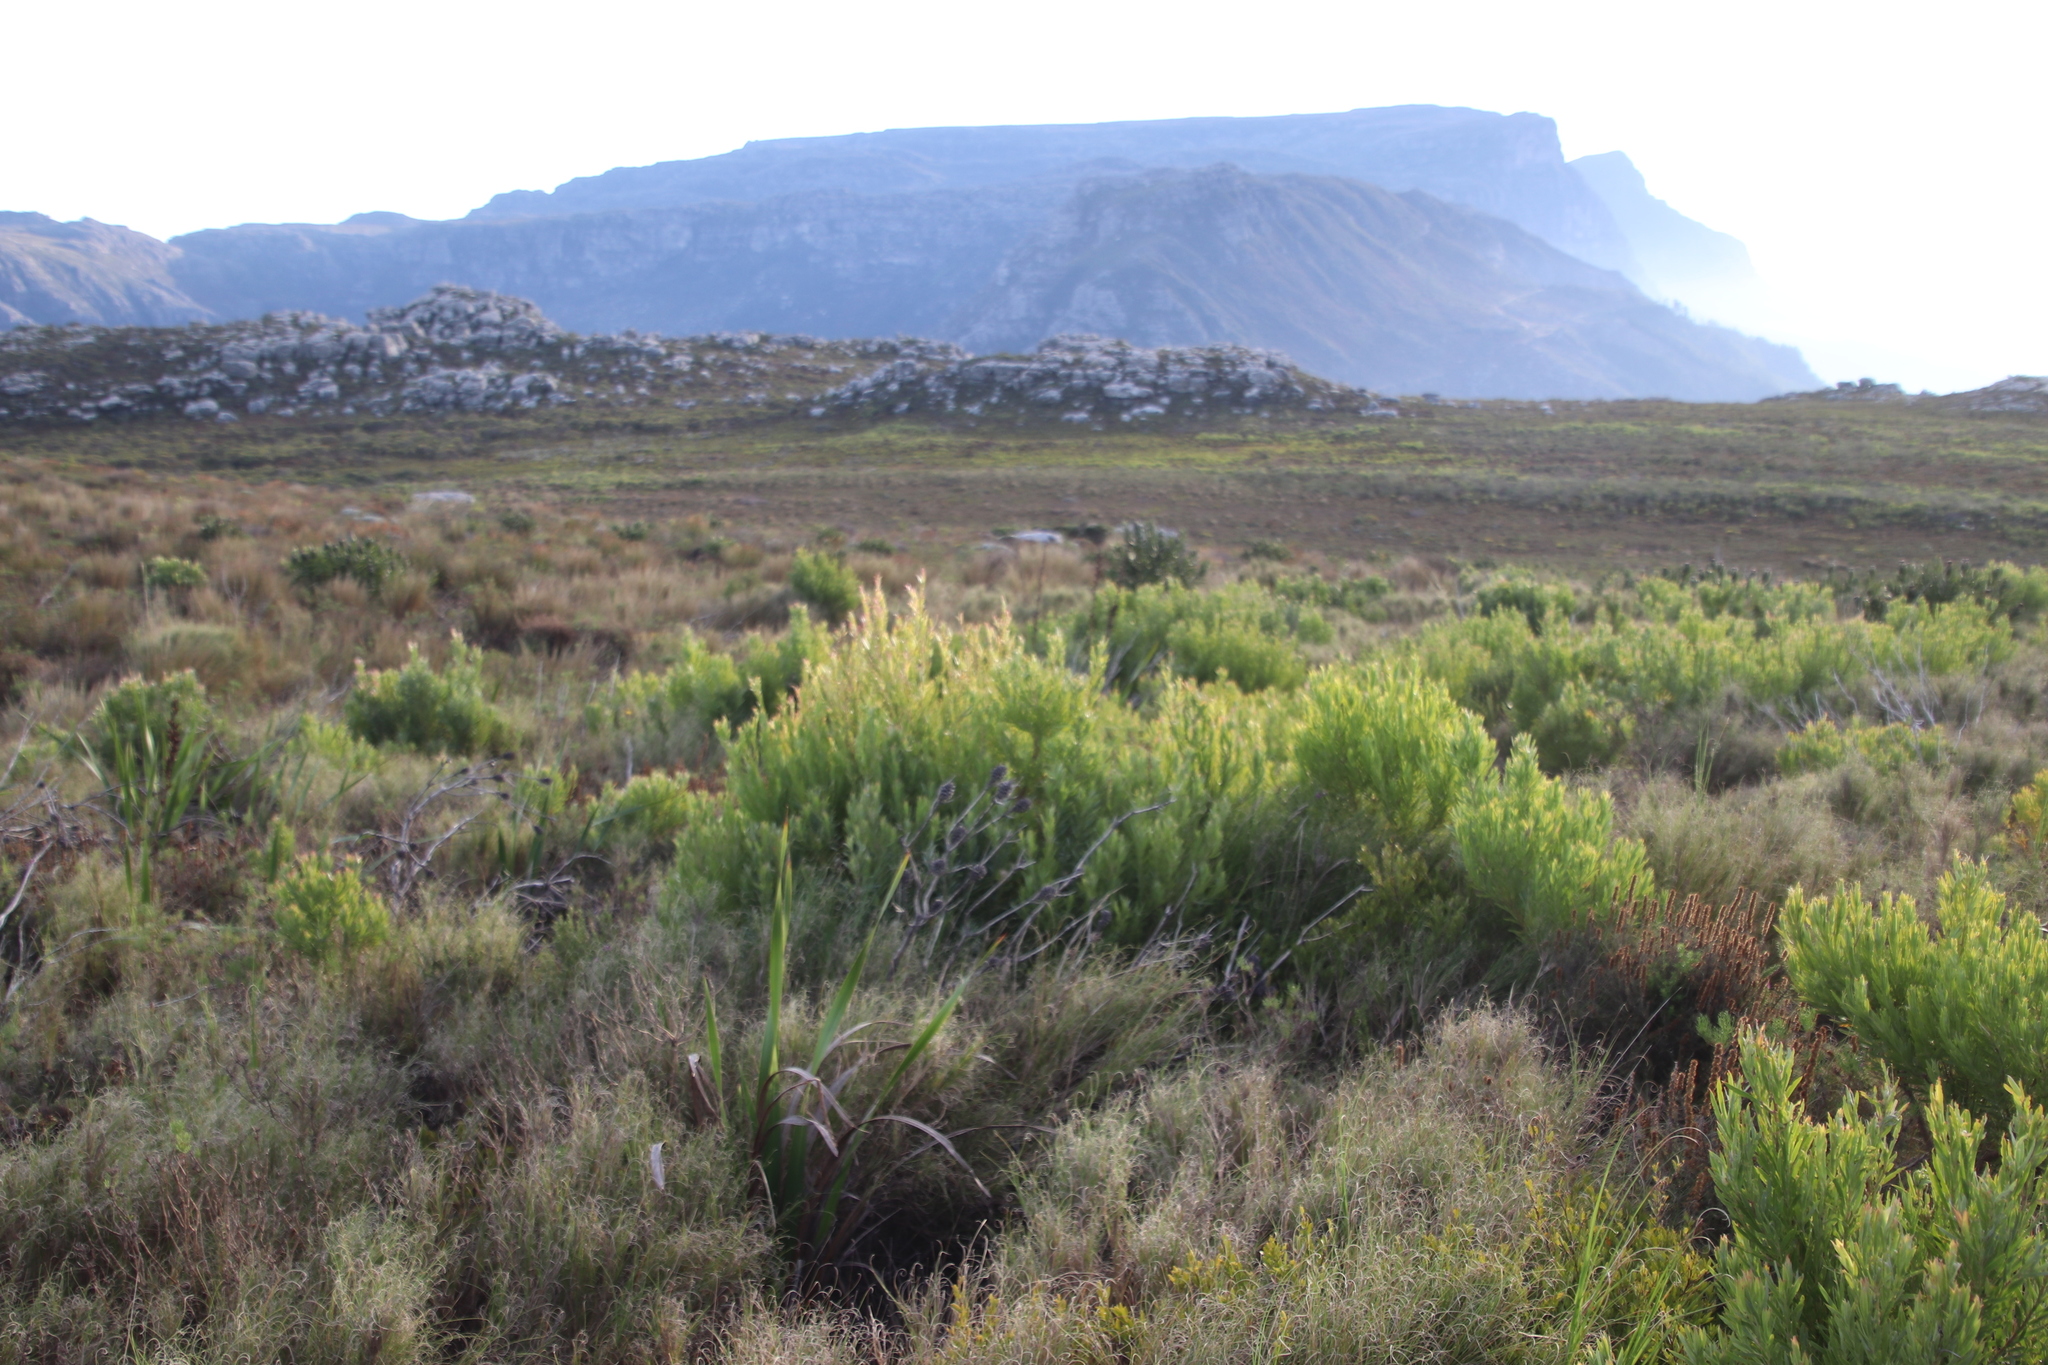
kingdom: Plantae
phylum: Tracheophyta
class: Magnoliopsida
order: Proteales
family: Proteaceae
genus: Leucadendron
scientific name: Leucadendron xanthoconus
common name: Sickle-leaf conebush
